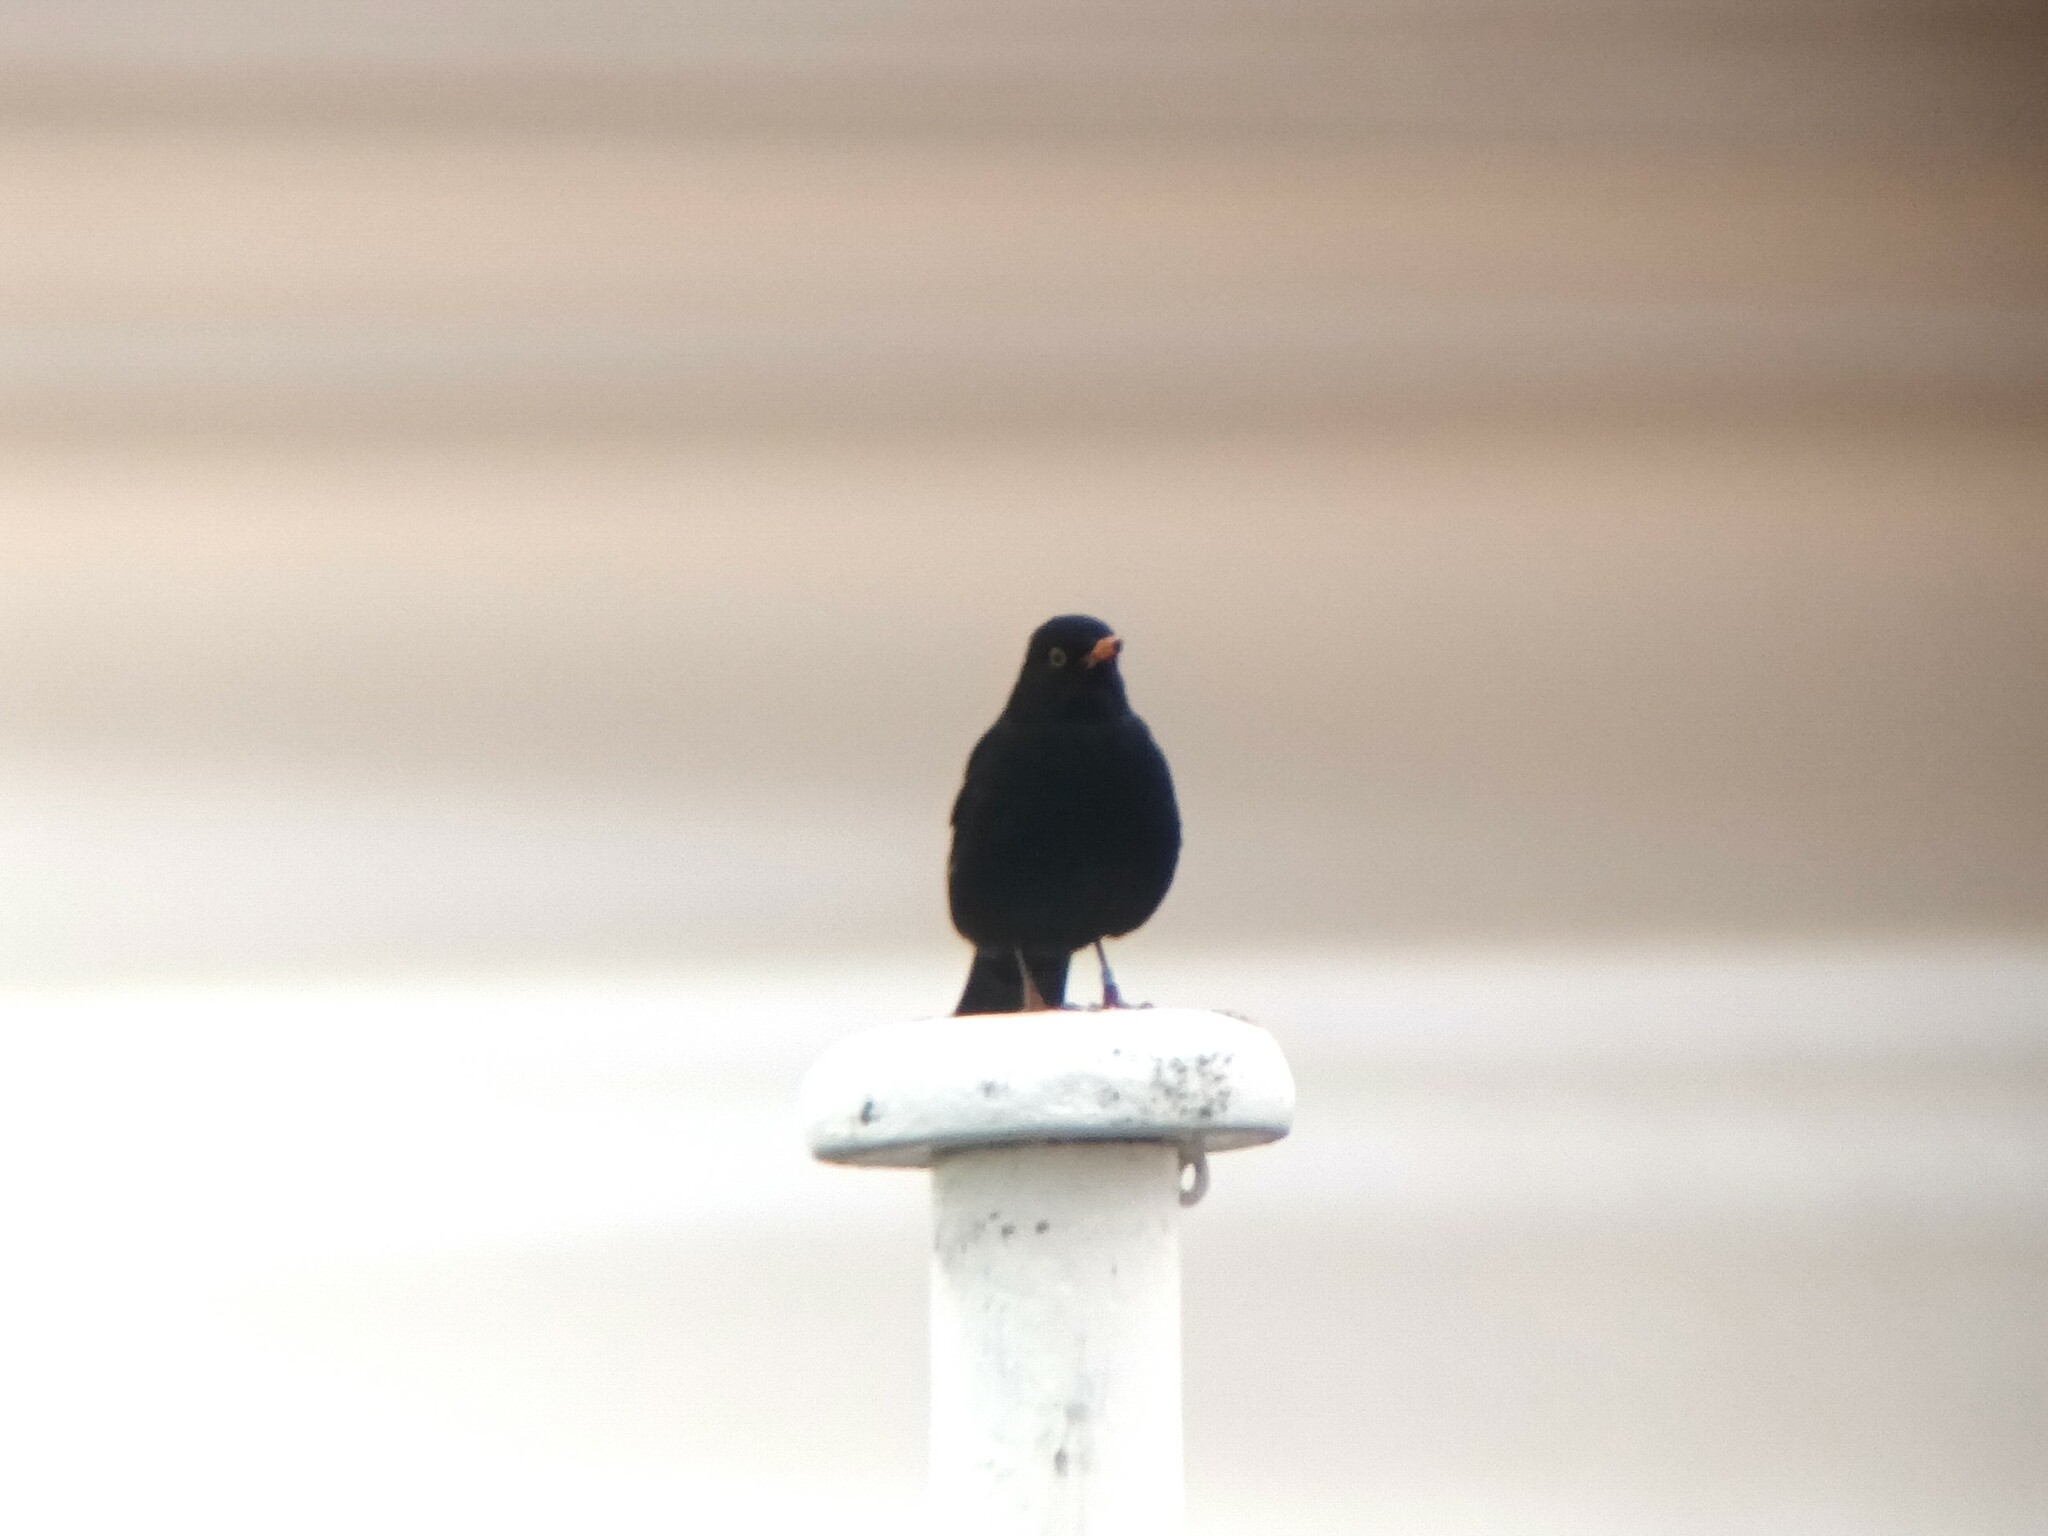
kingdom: Animalia
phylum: Chordata
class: Aves
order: Passeriformes
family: Turdidae
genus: Turdus
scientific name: Turdus merula
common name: Common blackbird
